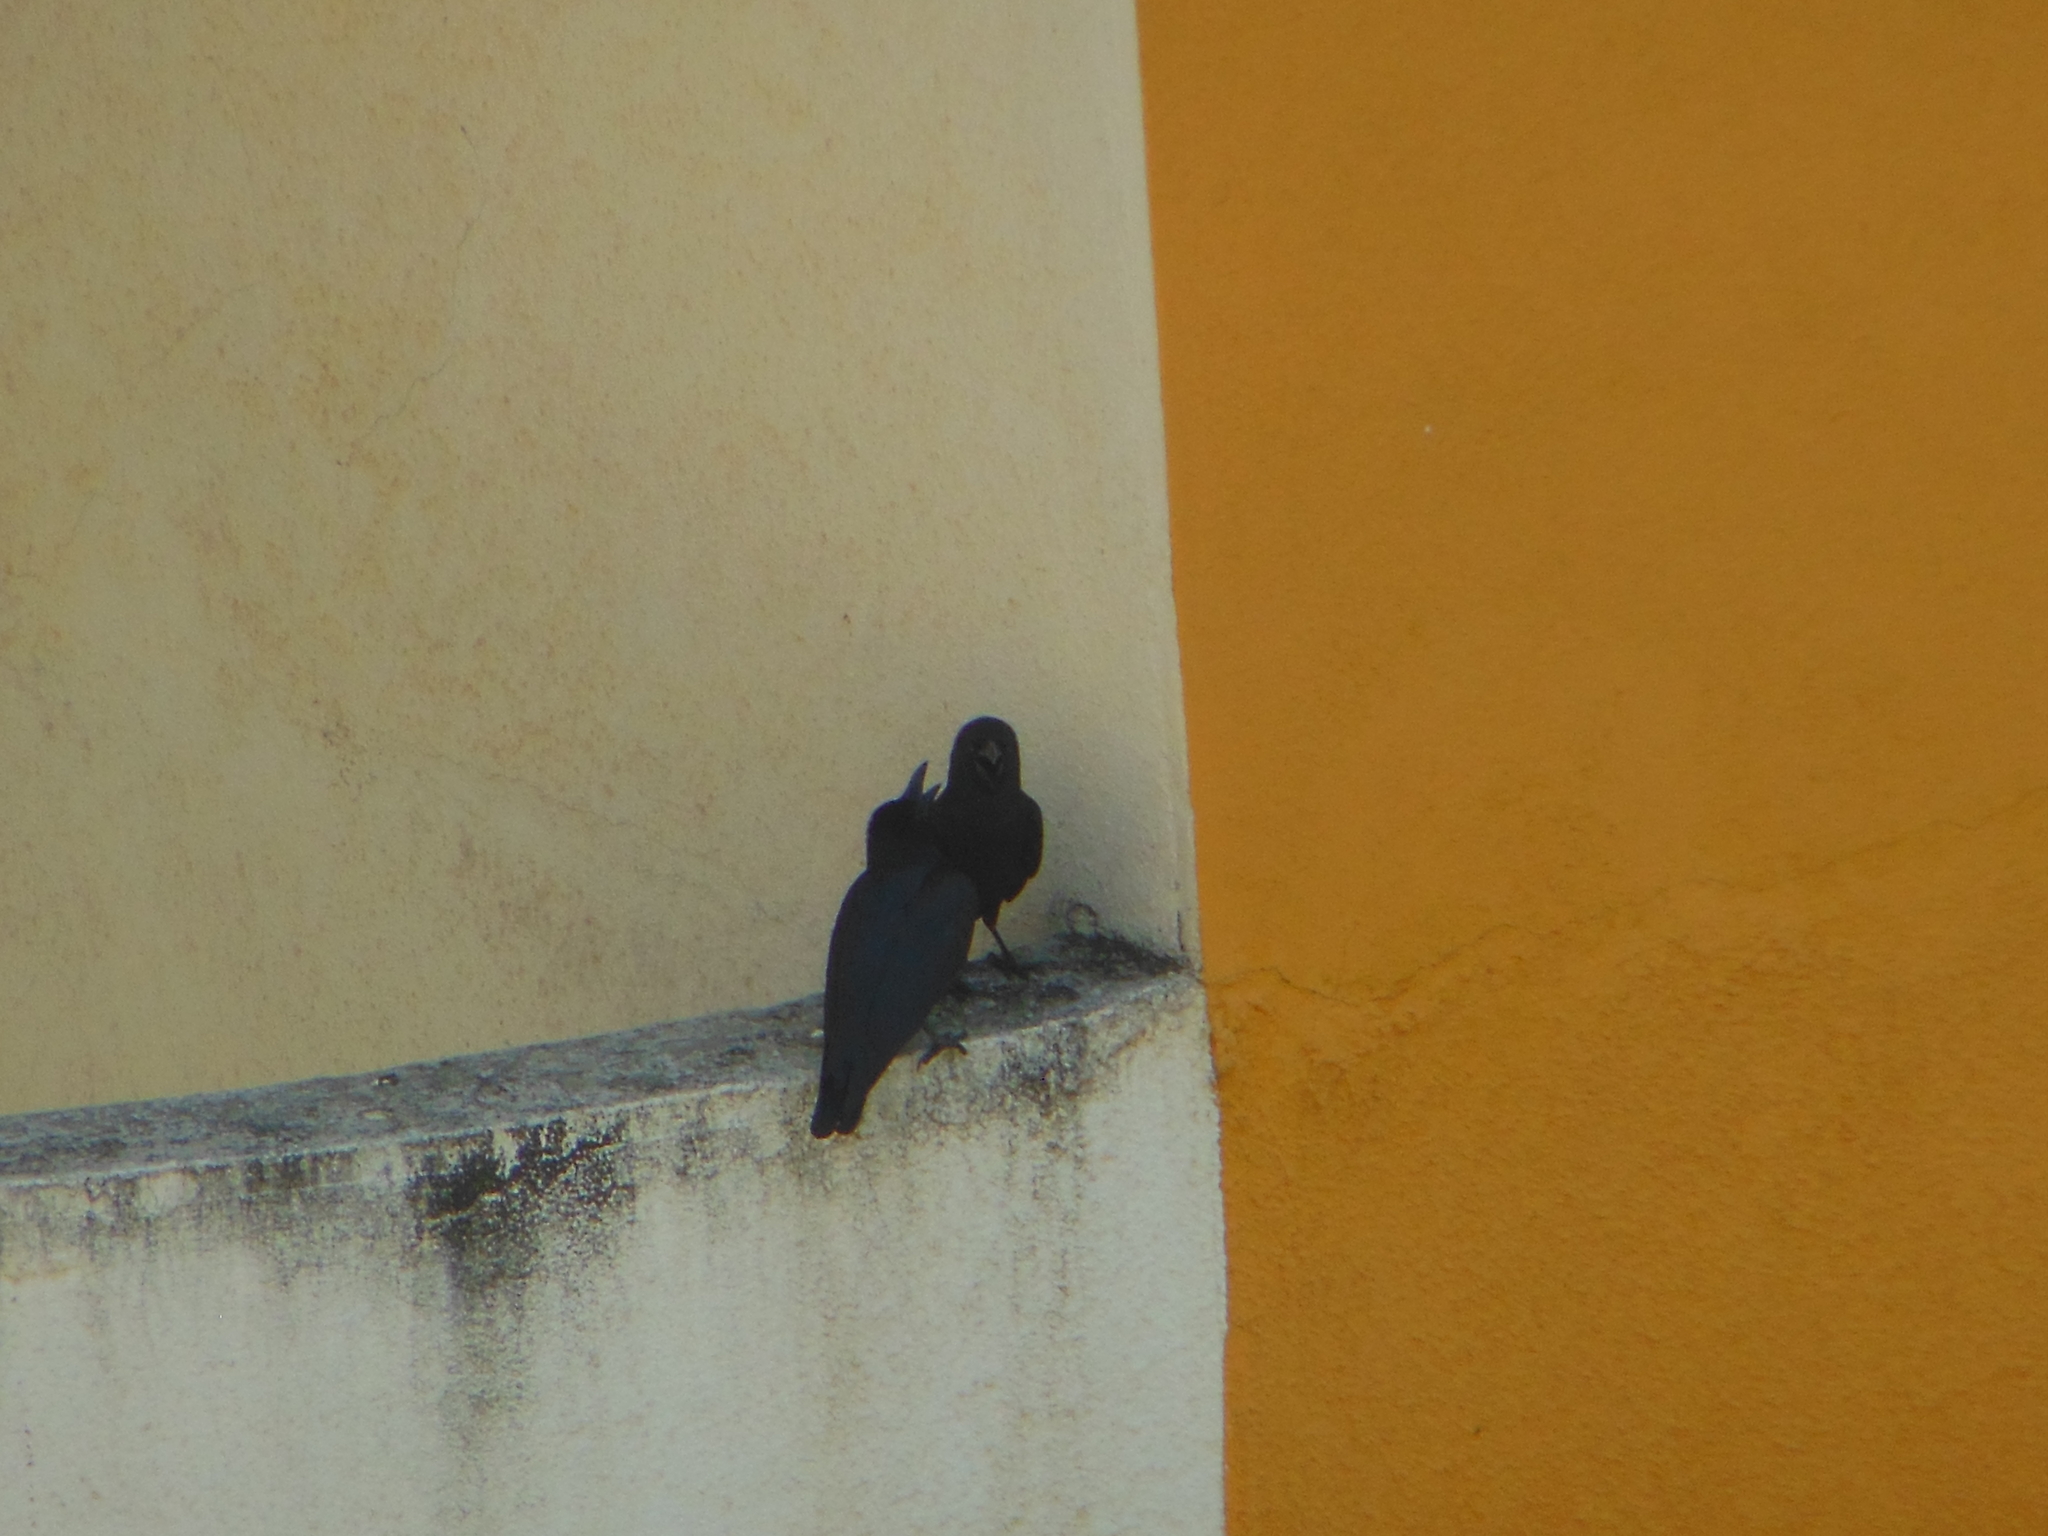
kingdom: Animalia
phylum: Chordata
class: Aves
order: Passeriformes
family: Corvidae
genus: Corvus
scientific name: Corvus macrorhynchos
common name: Large-billed crow
